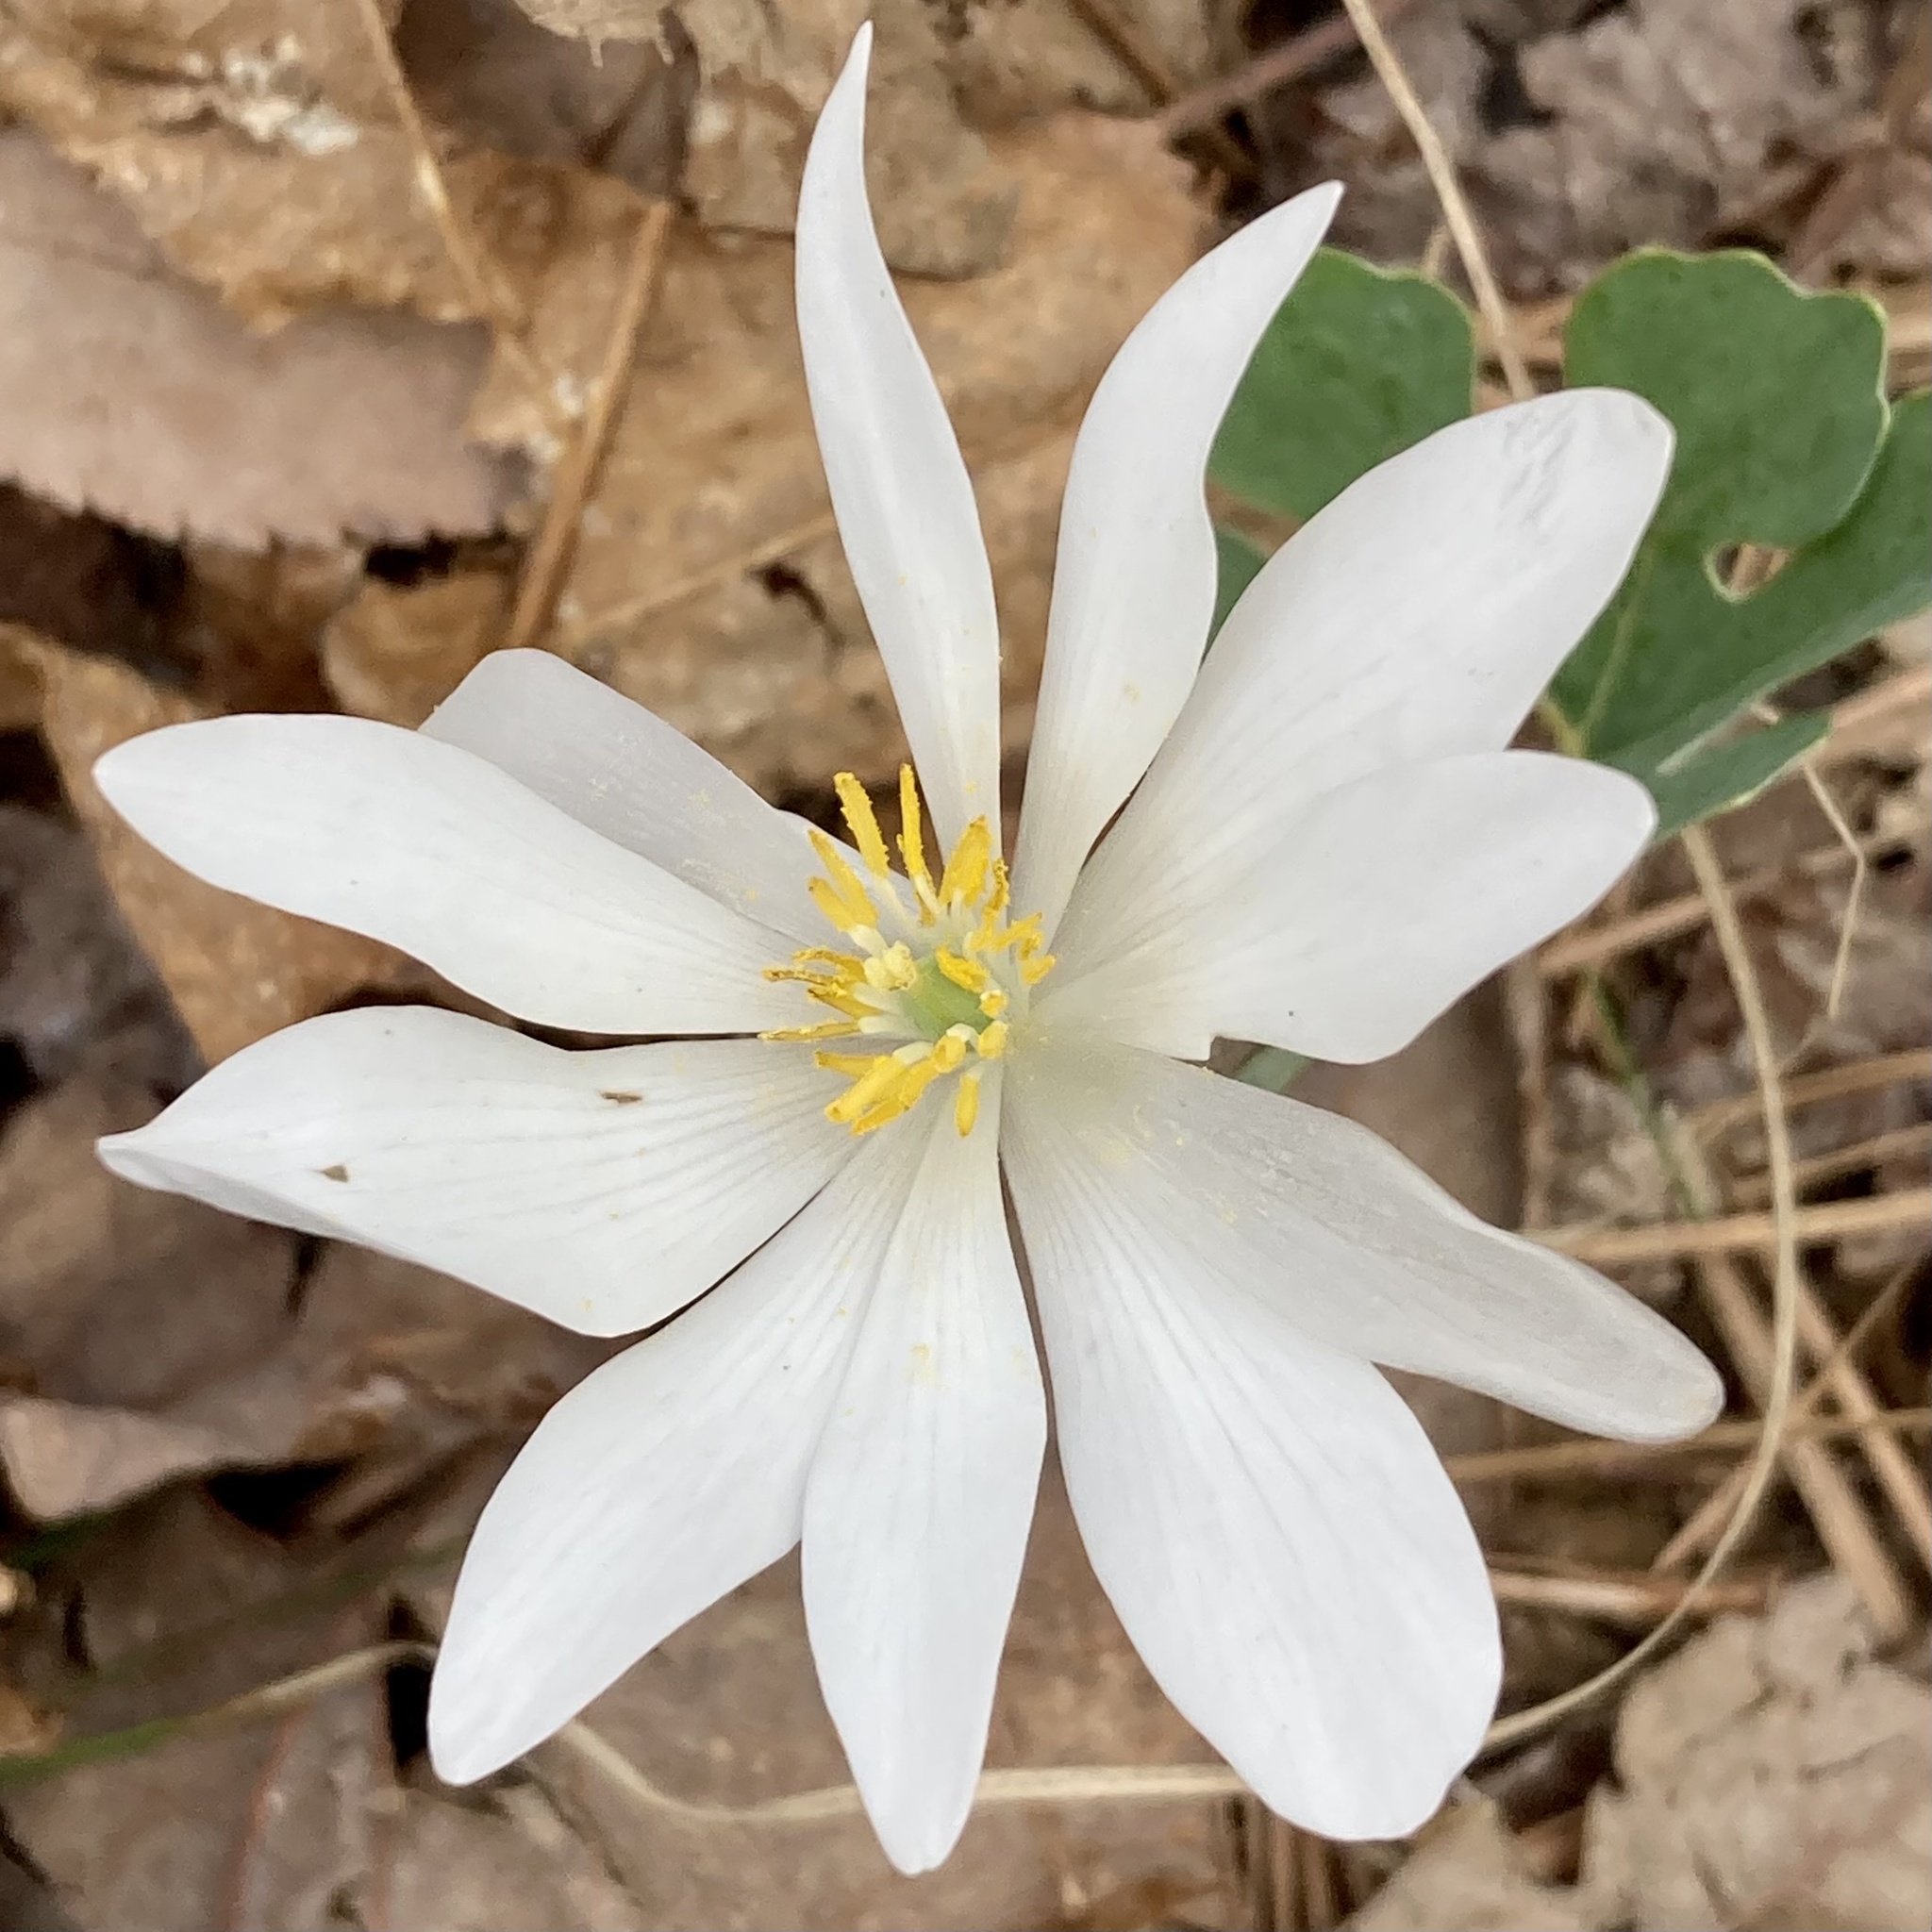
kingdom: Plantae
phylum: Tracheophyta
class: Magnoliopsida
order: Ranunculales
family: Papaveraceae
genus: Sanguinaria
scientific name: Sanguinaria canadensis
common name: Bloodroot
